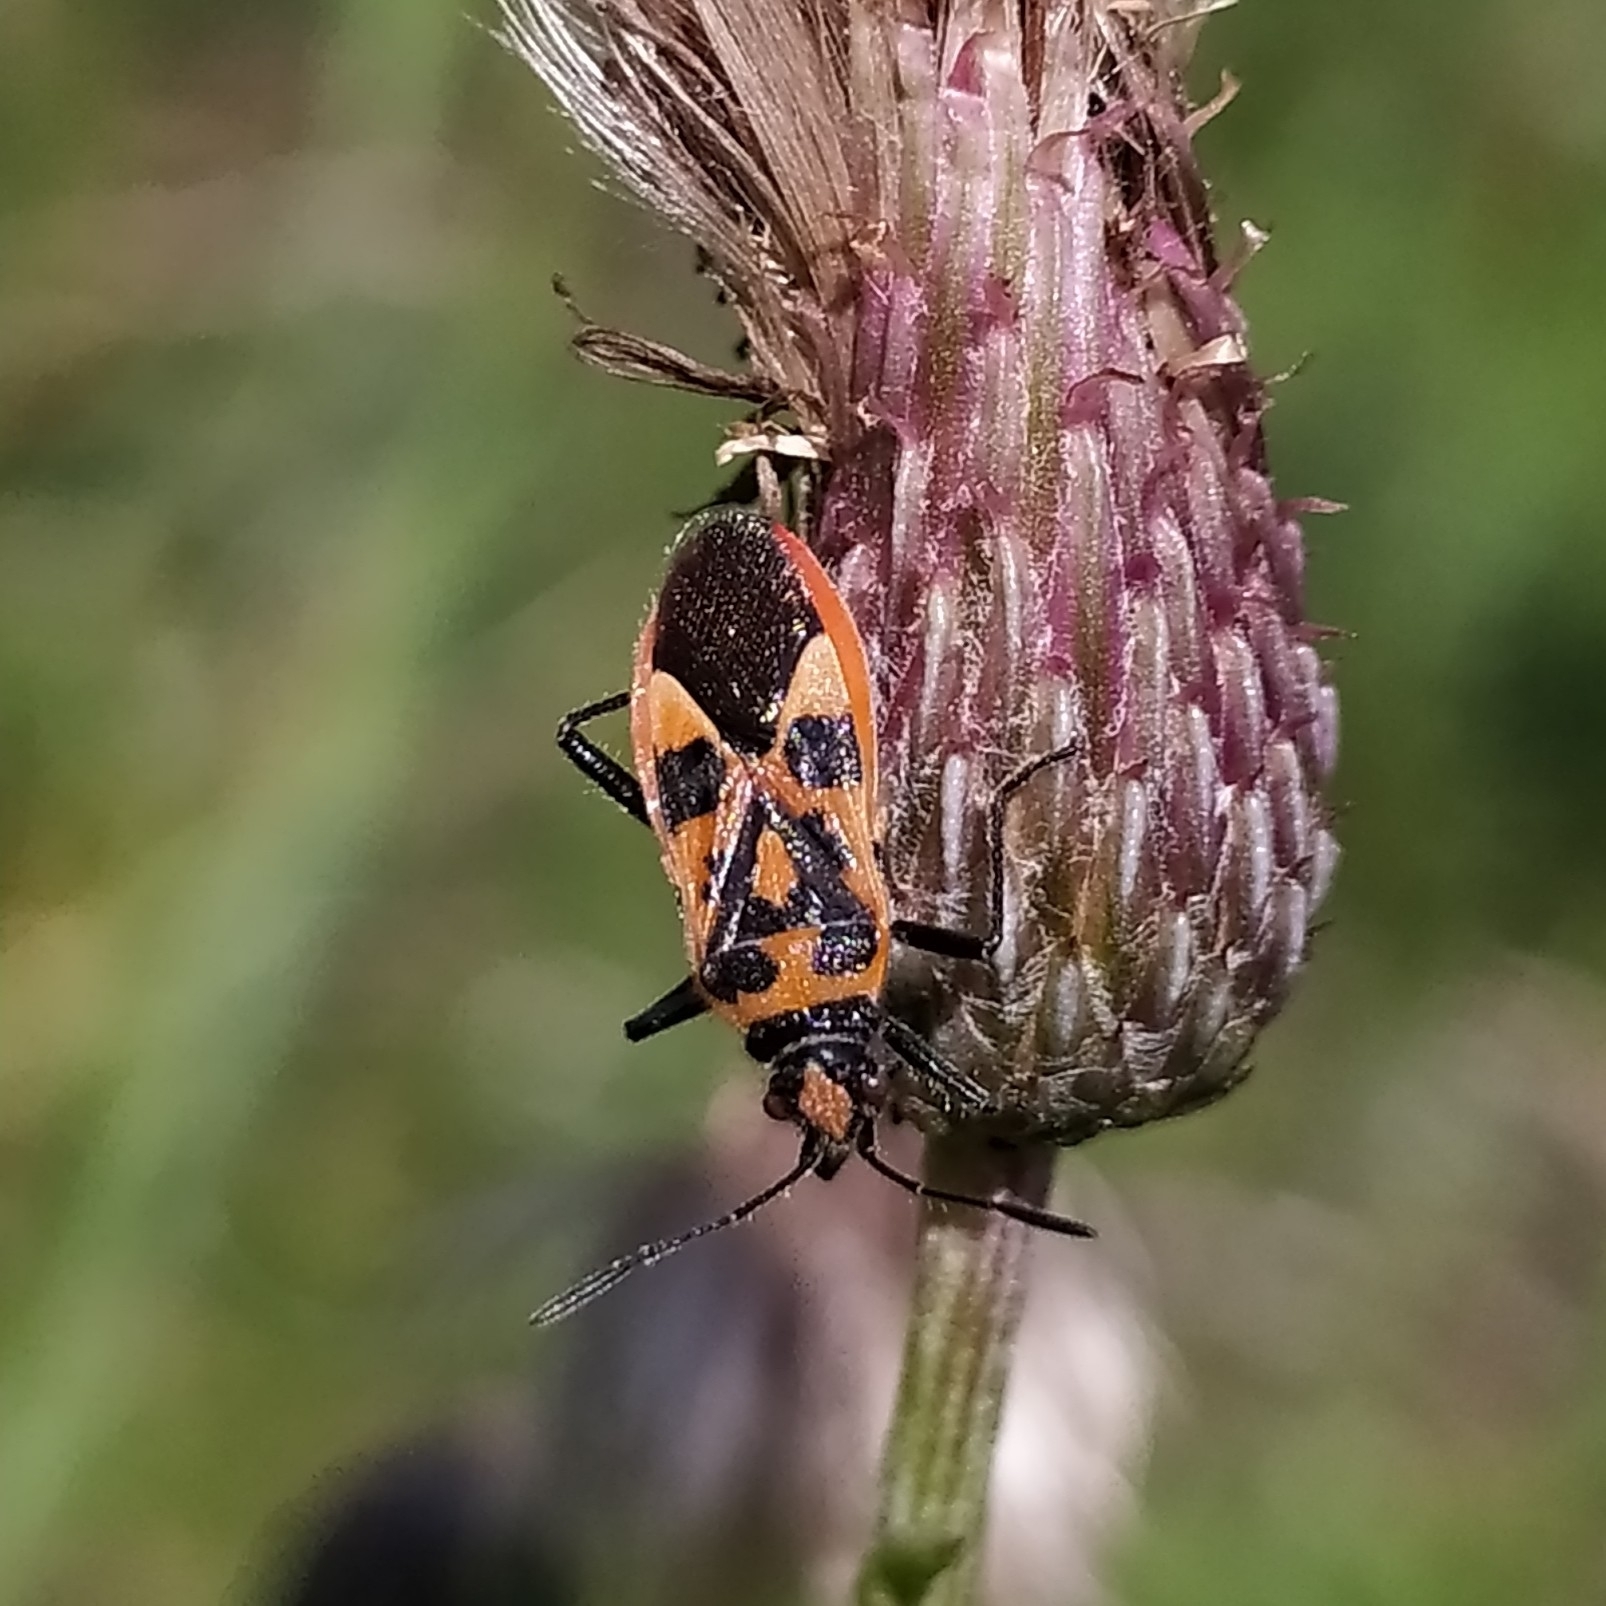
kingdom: Animalia
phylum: Arthropoda
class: Insecta
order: Hemiptera
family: Rhopalidae
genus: Corizus
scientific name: Corizus hyoscyami
